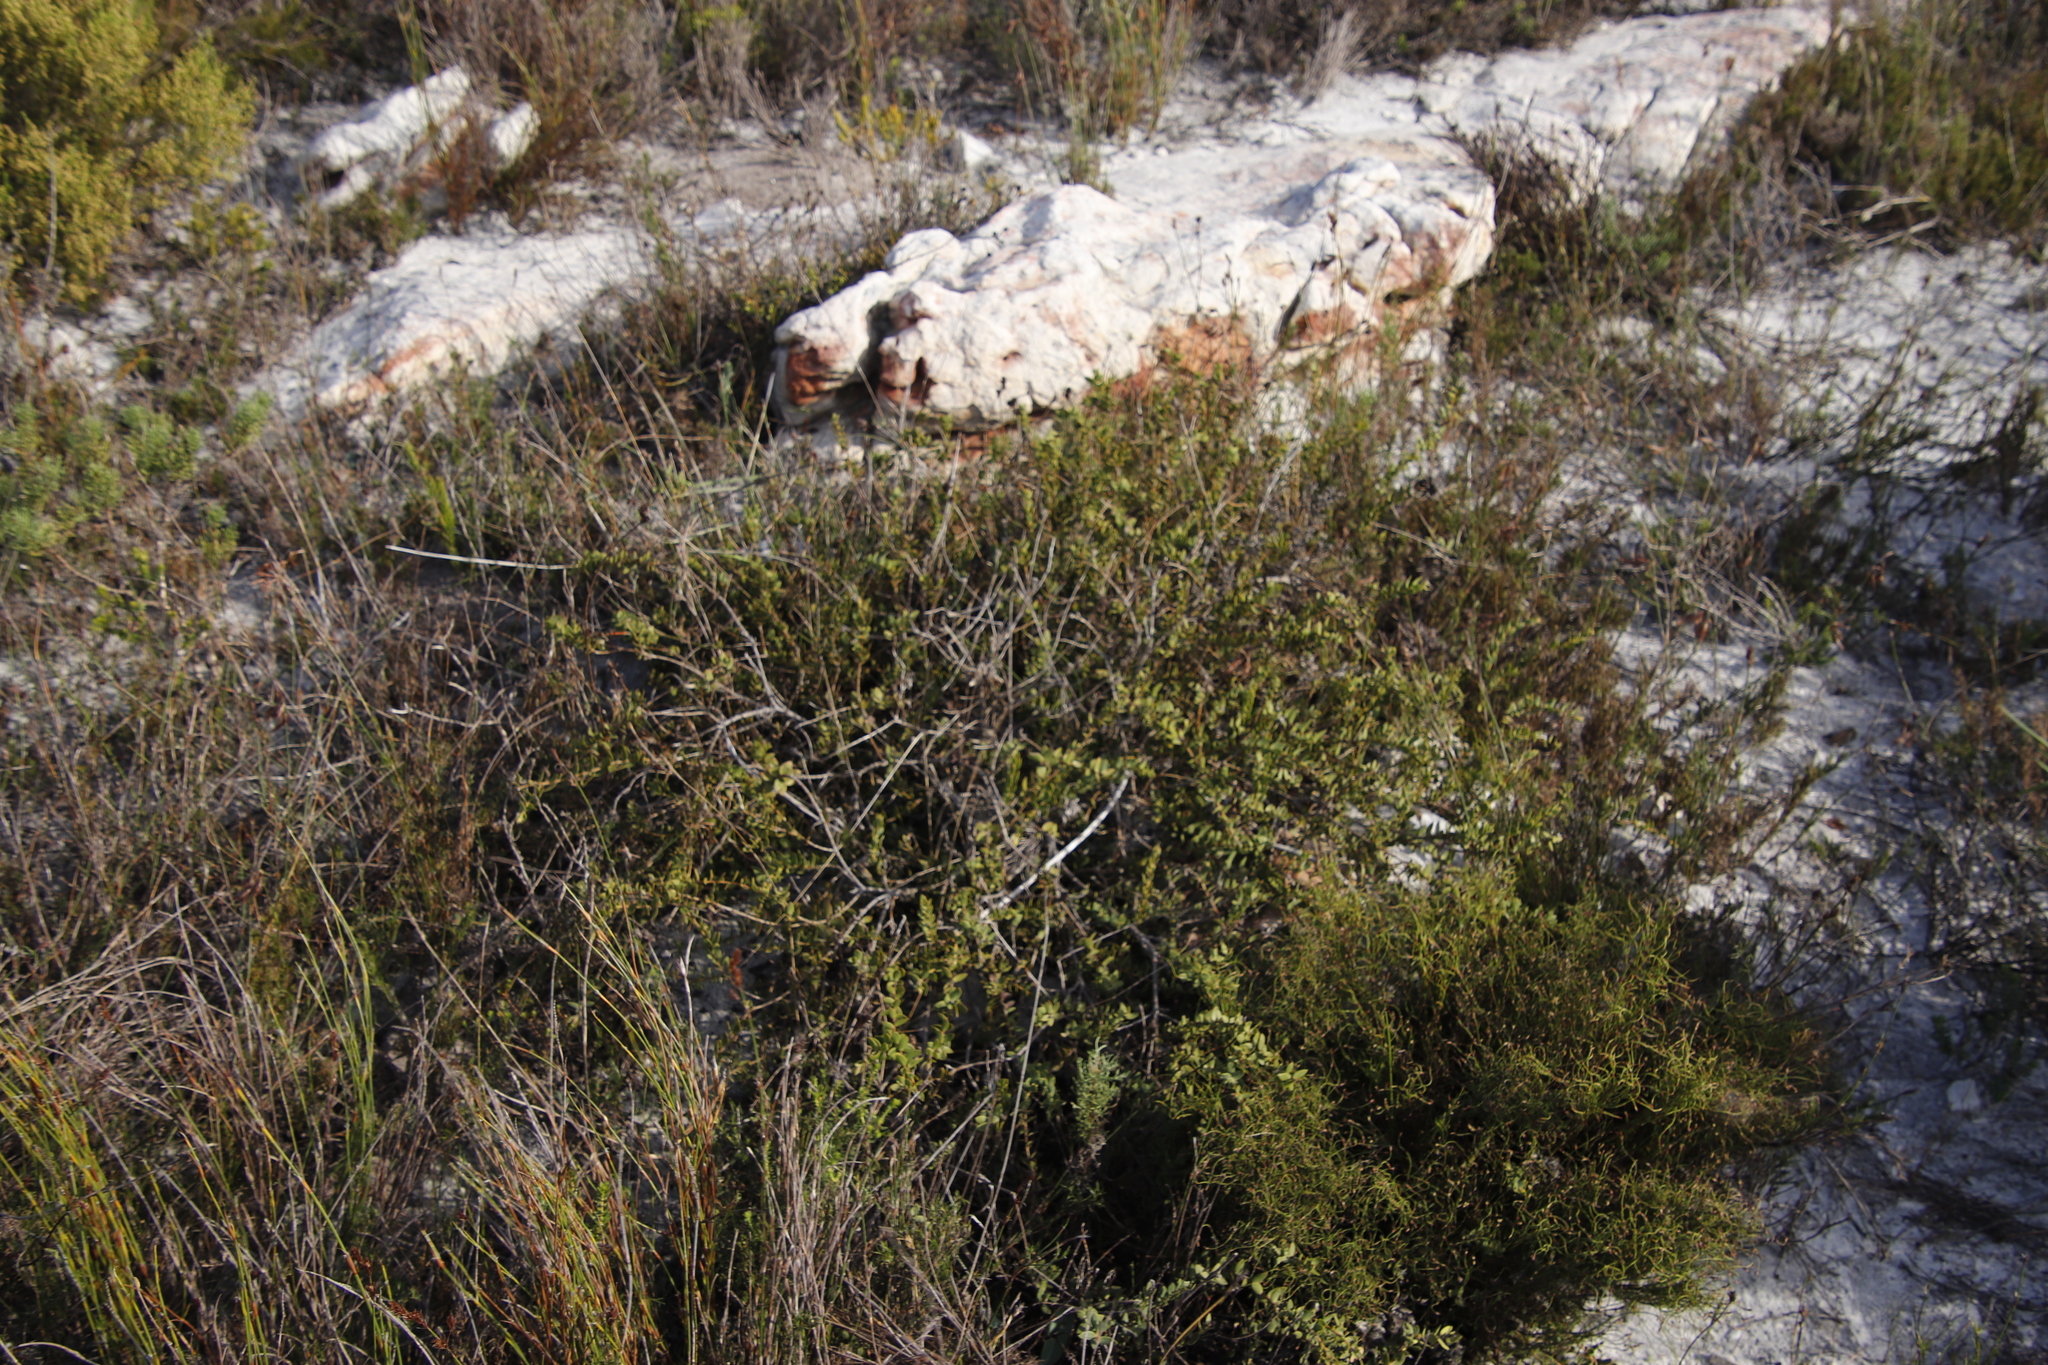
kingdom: Plantae
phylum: Tracheophyta
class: Magnoliopsida
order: Fabales
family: Fabaceae
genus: Liparia
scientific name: Liparia parva
